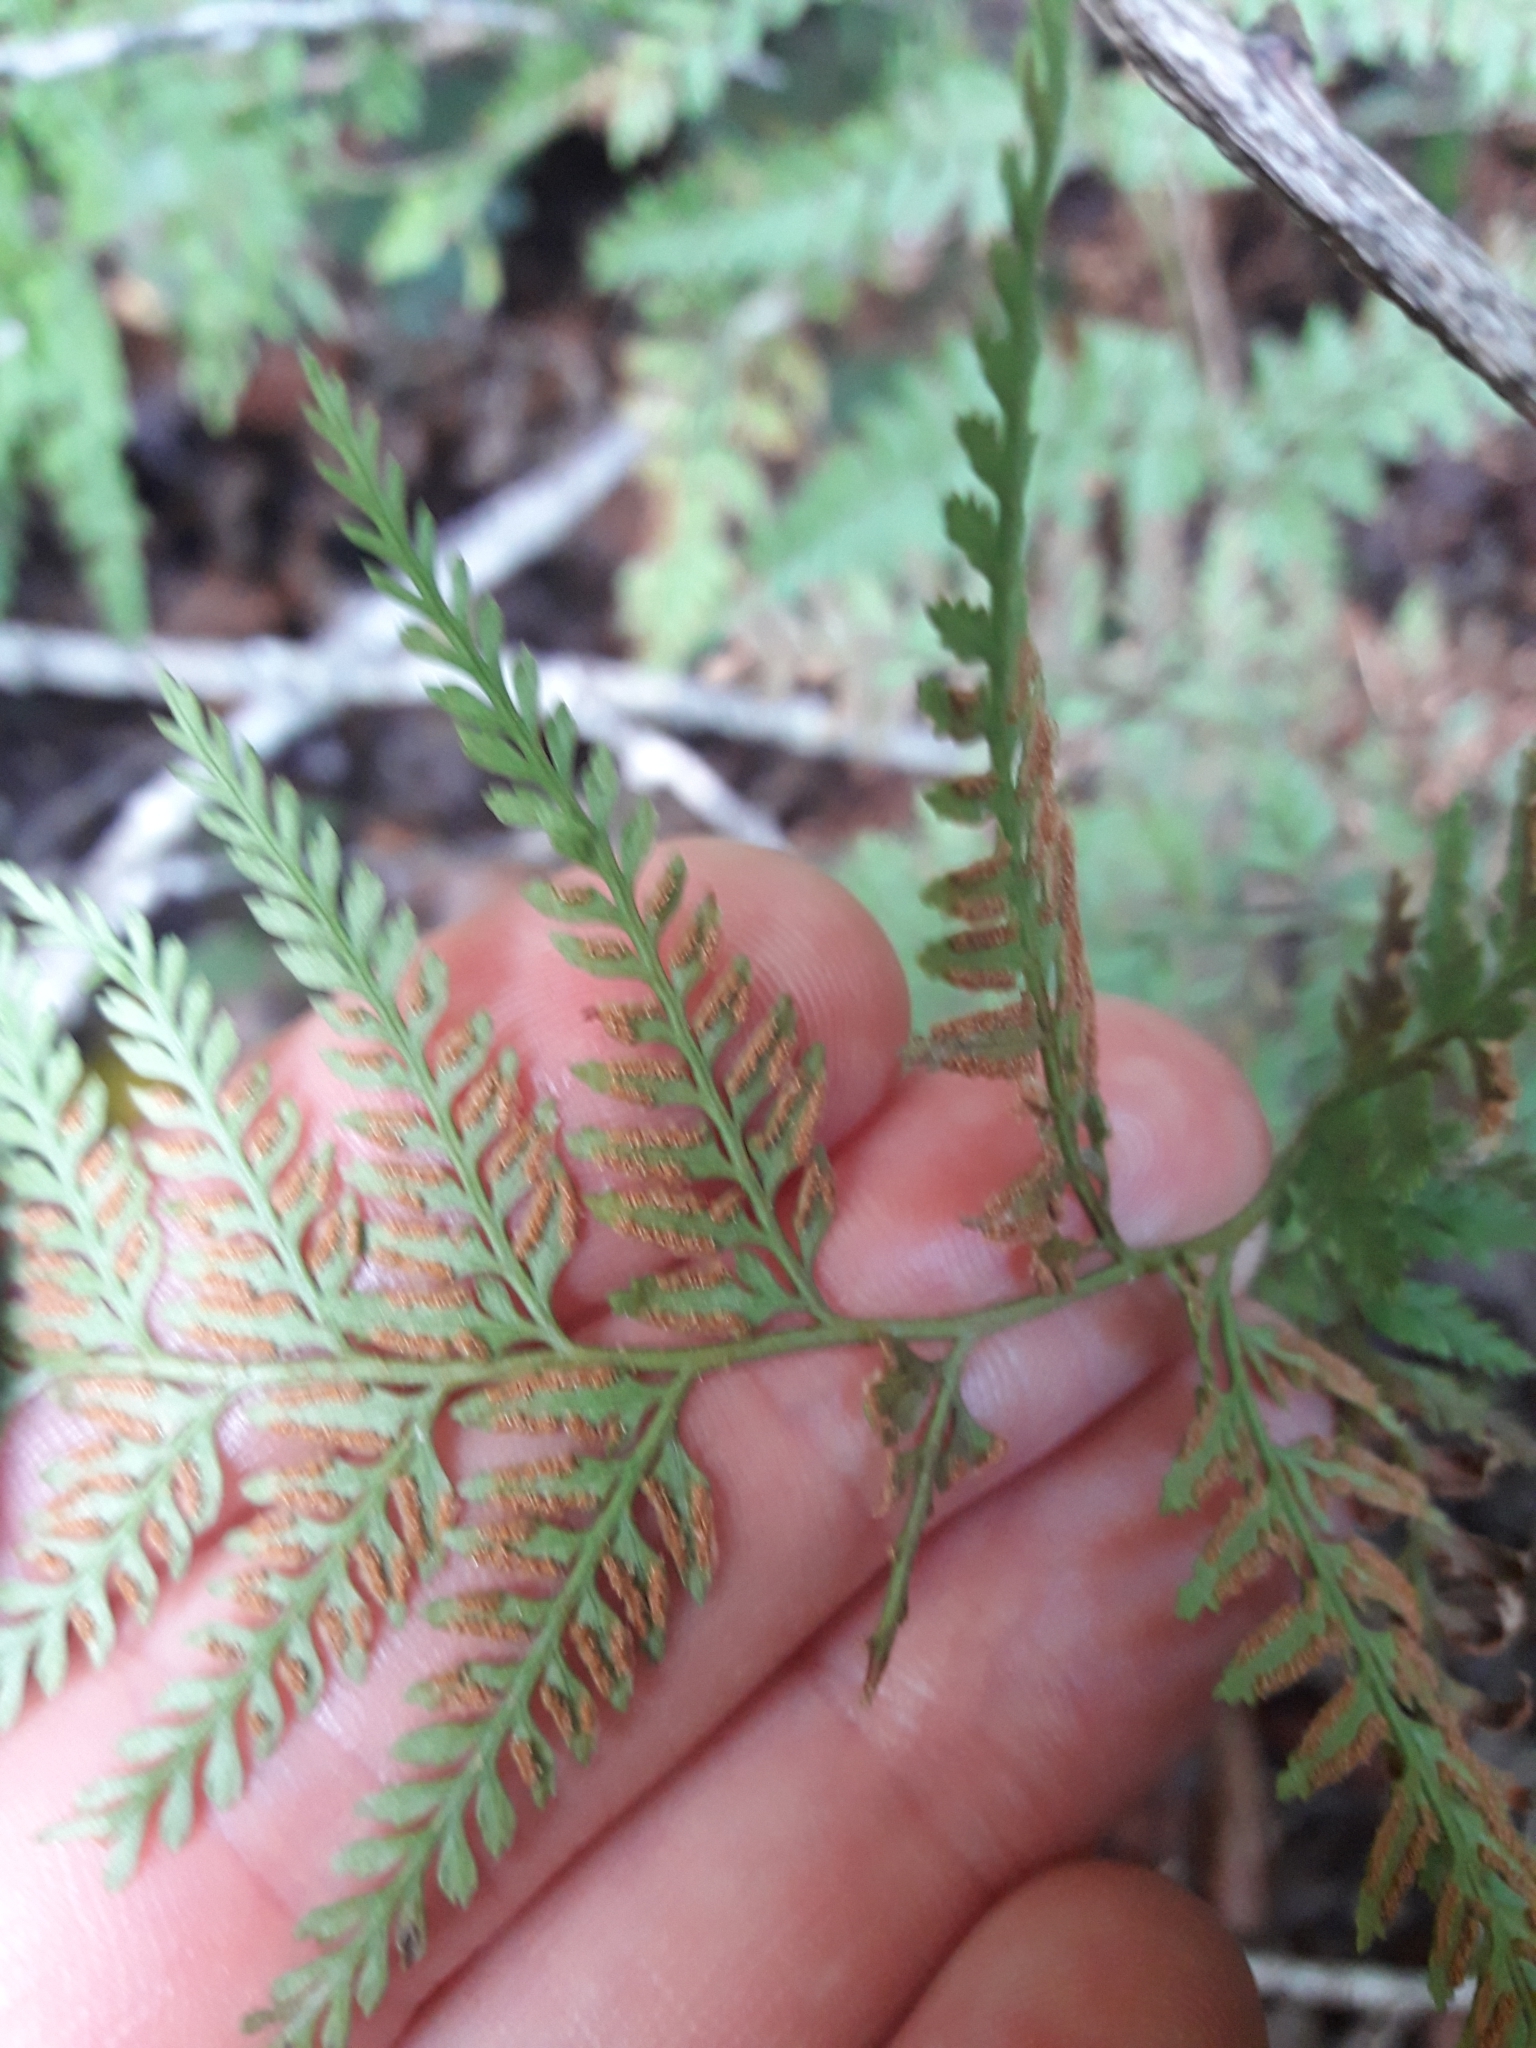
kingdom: Plantae
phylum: Tracheophyta
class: Polypodiopsida
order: Polypodiales
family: Dennstaedtiaceae
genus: Paesia
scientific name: Paesia scaberula
